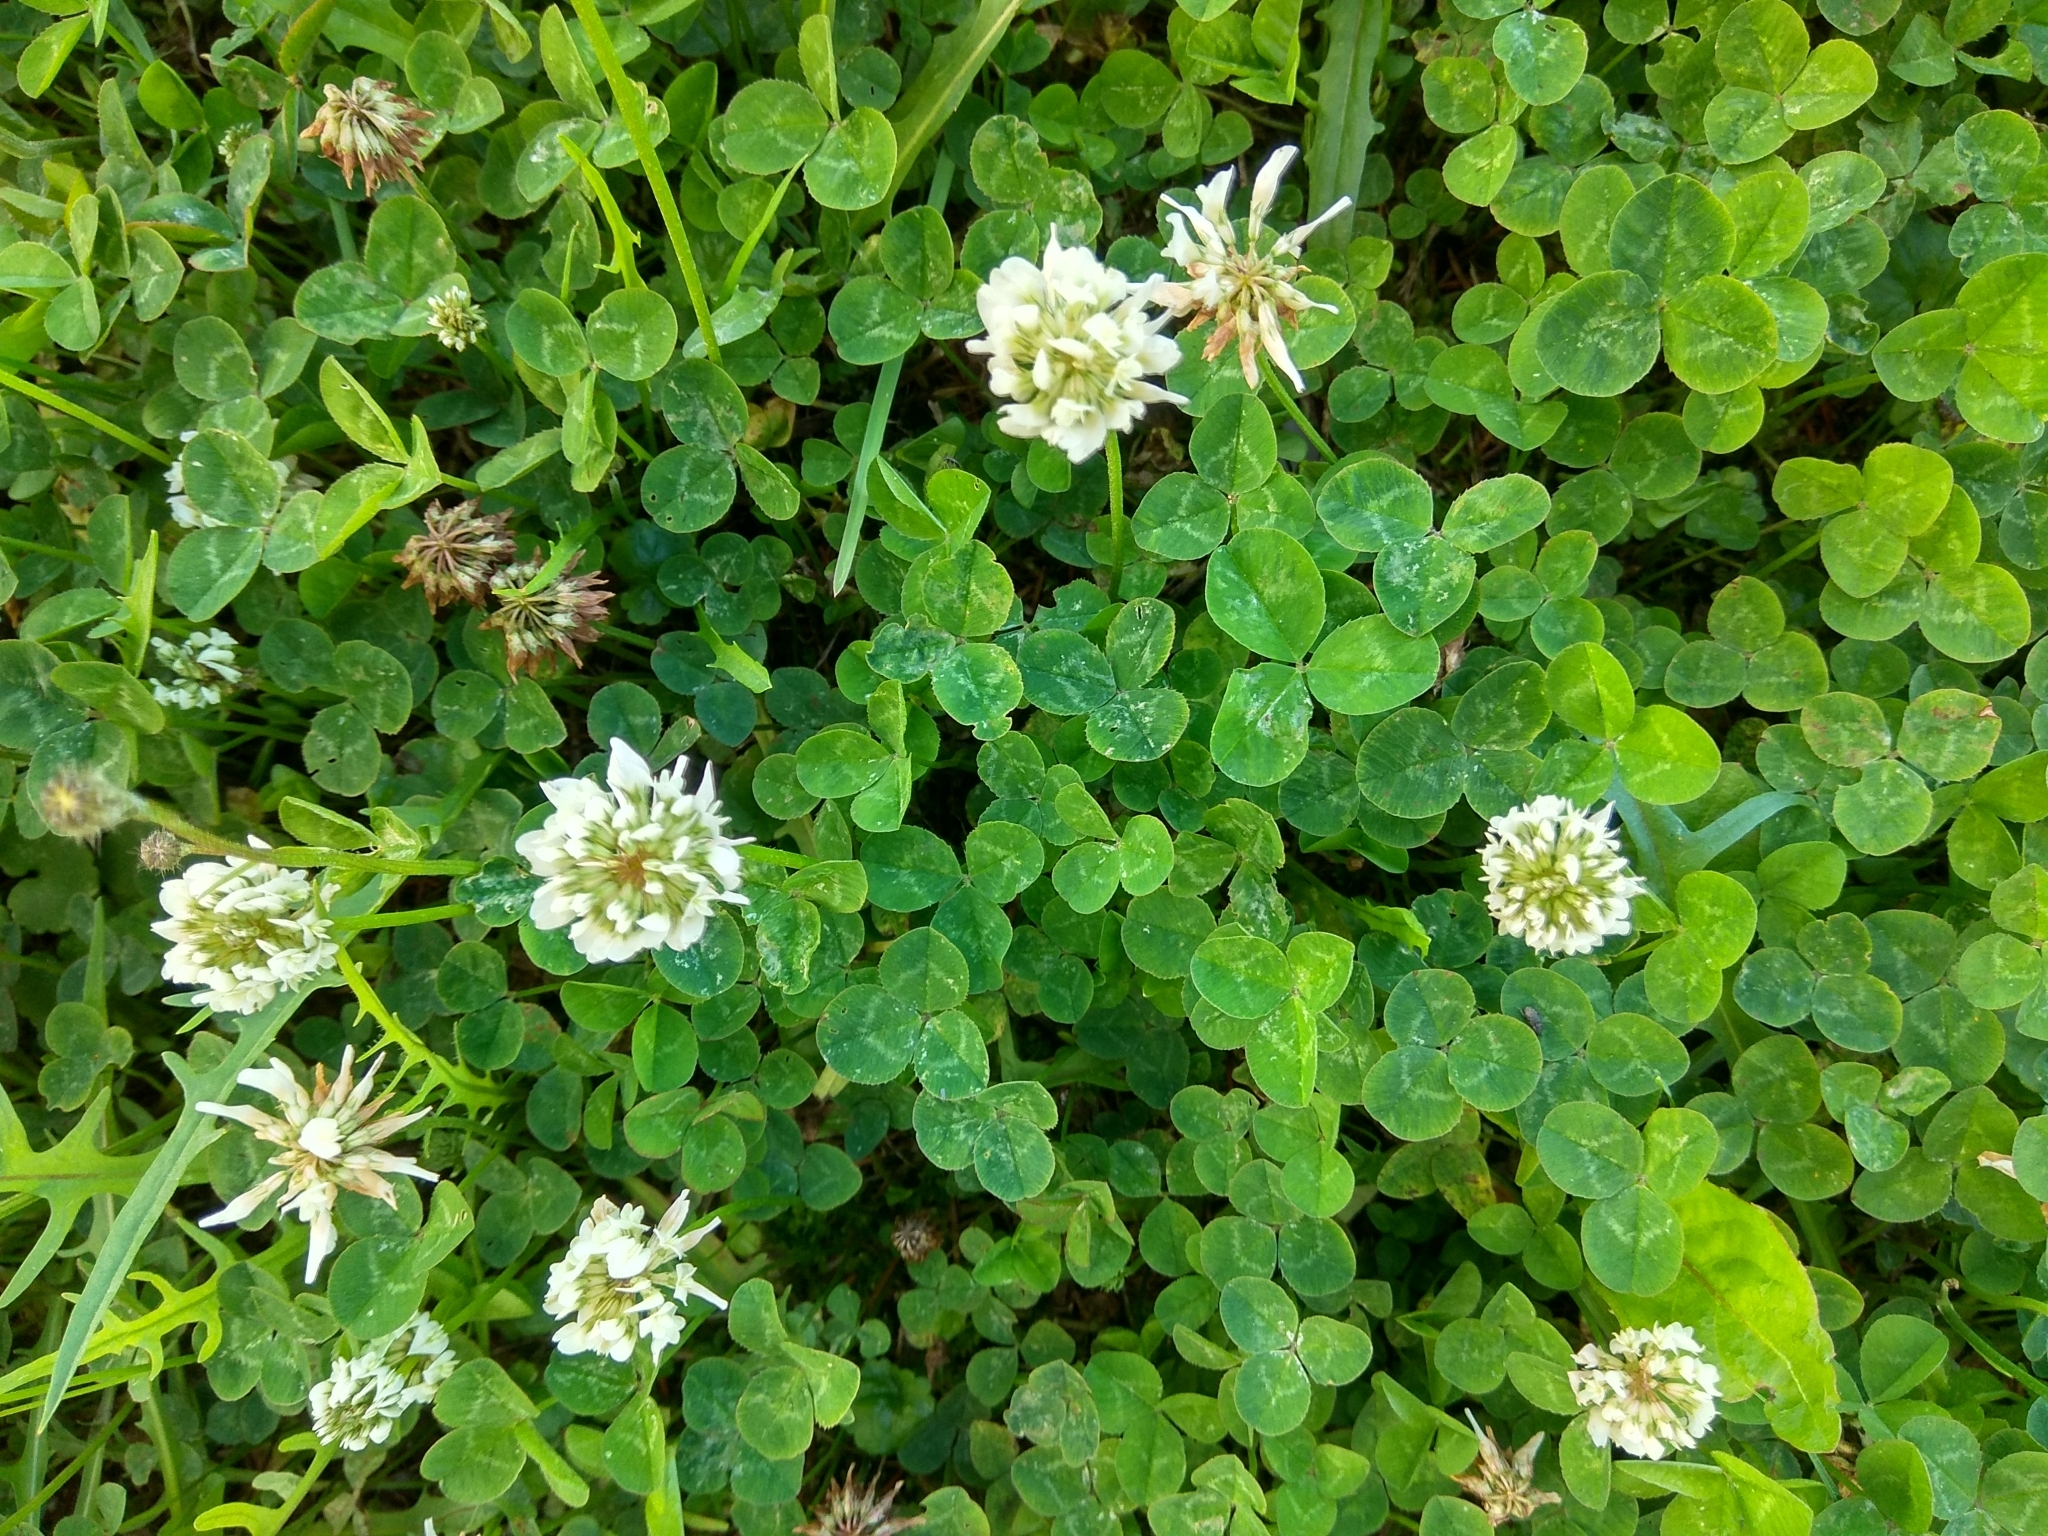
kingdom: Plantae
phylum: Tracheophyta
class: Magnoliopsida
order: Fabales
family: Fabaceae
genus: Trifolium
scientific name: Trifolium repens
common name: White clover
